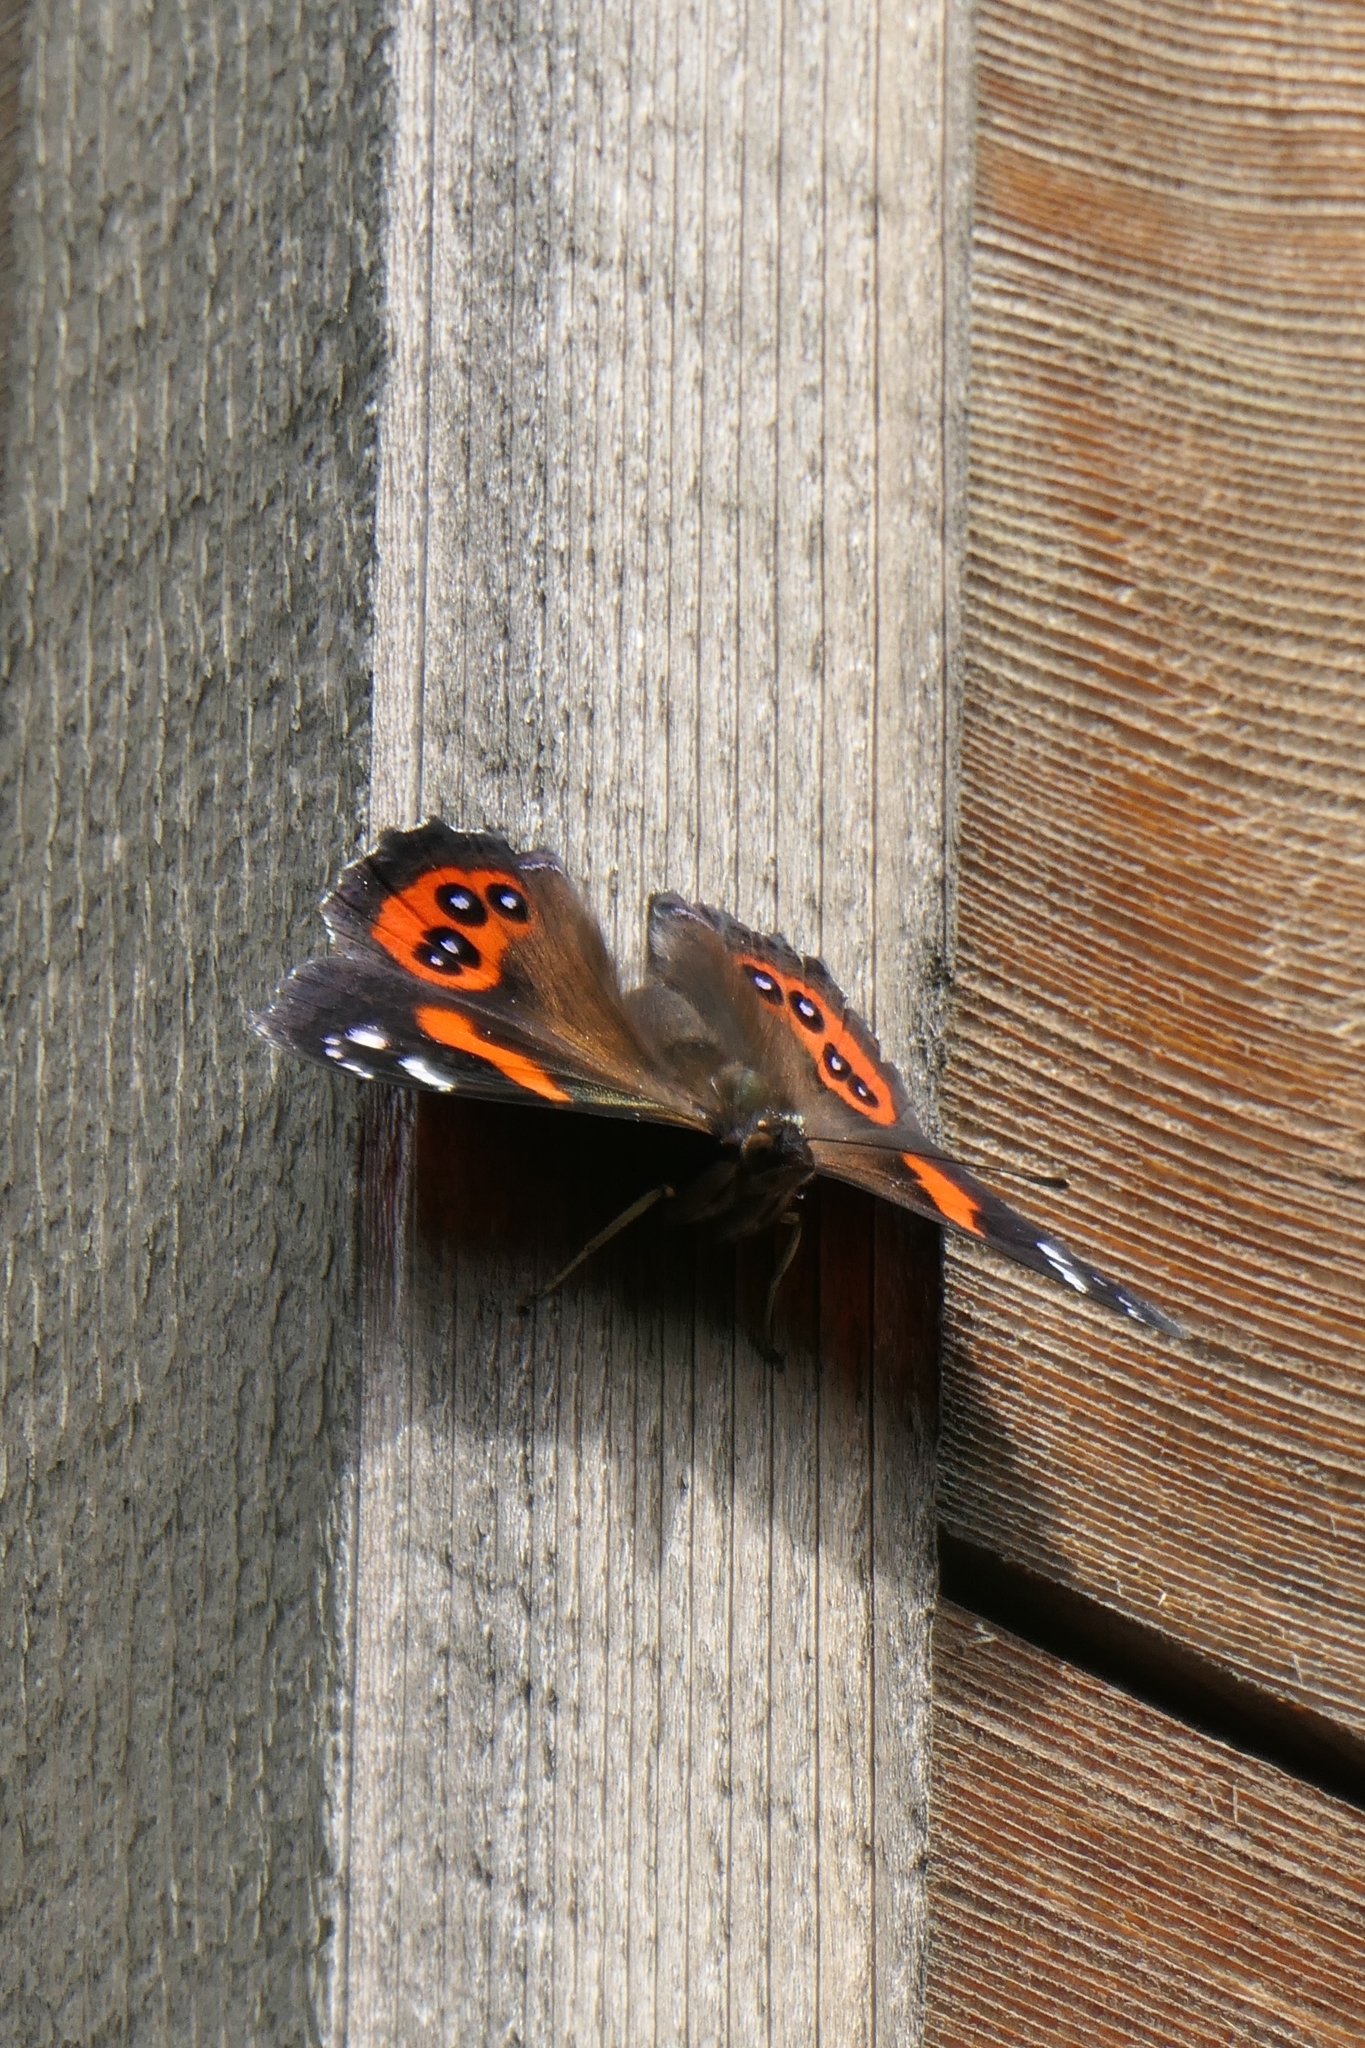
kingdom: Animalia
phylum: Arthropoda
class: Insecta
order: Lepidoptera
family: Nymphalidae
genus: Vanessa
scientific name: Vanessa gonerilla
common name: New zealand red admiral
